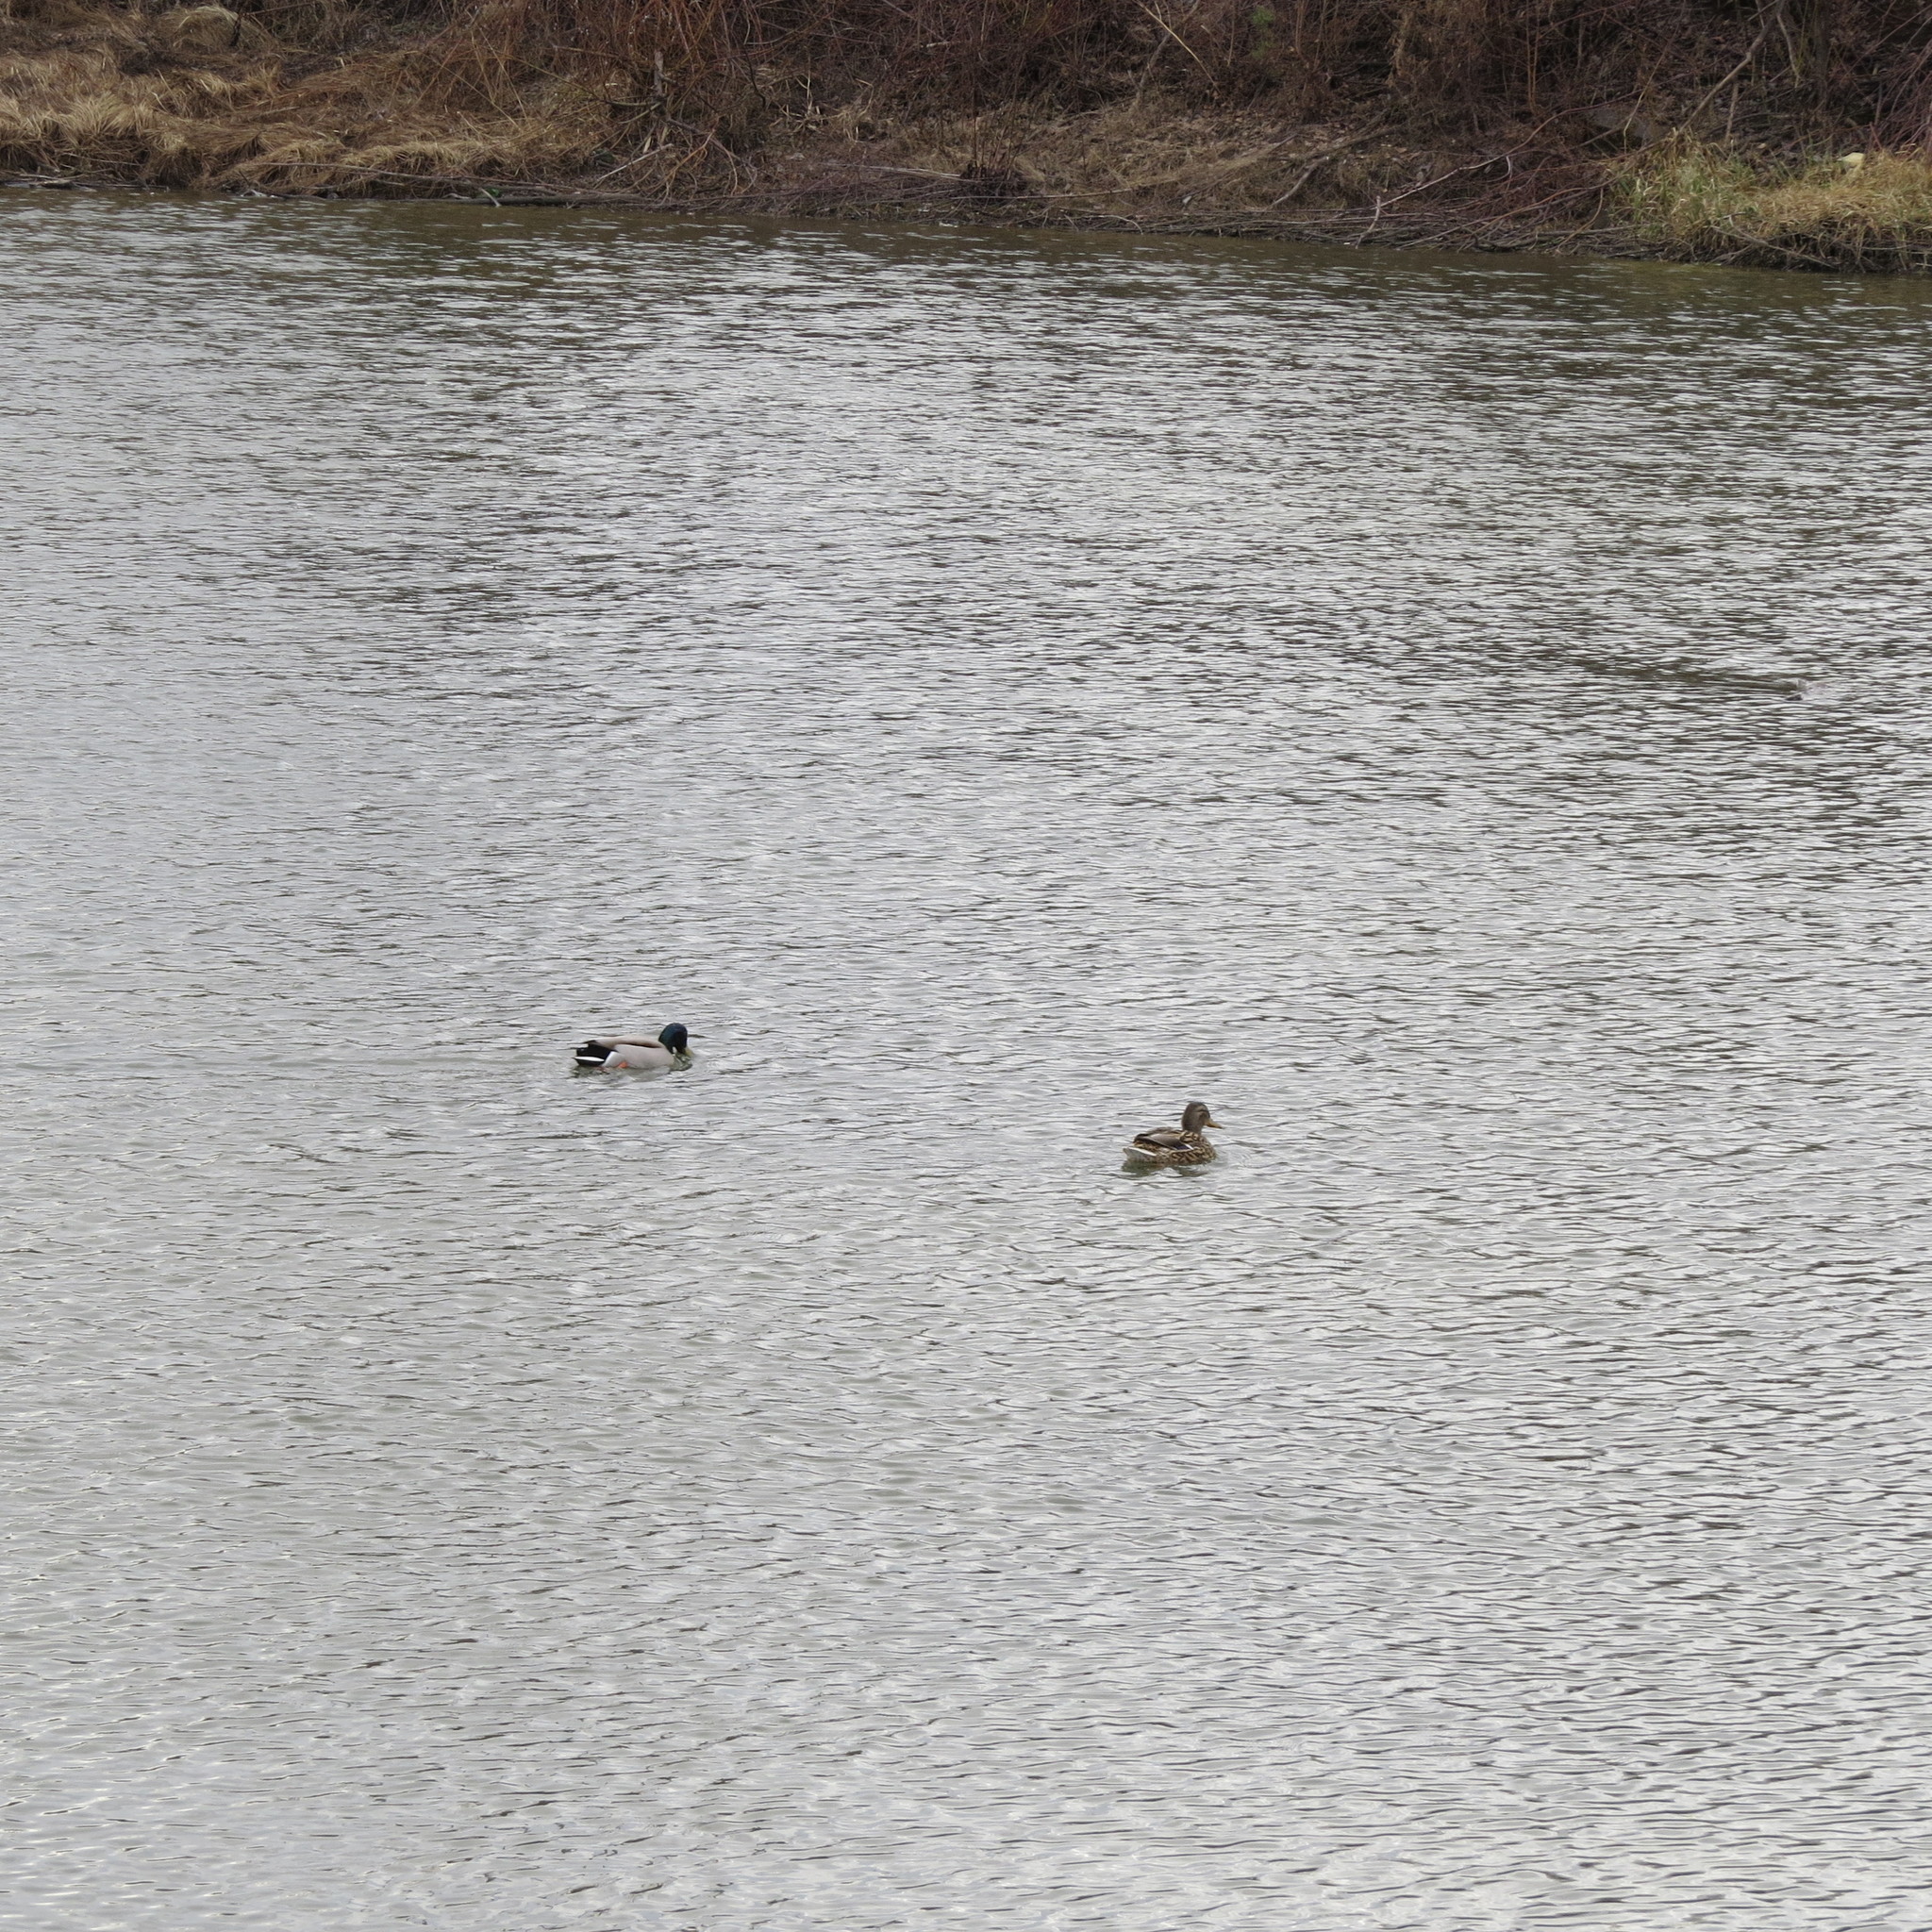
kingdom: Animalia
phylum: Chordata
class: Aves
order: Anseriformes
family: Anatidae
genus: Anas
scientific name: Anas platyrhynchos
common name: Mallard
